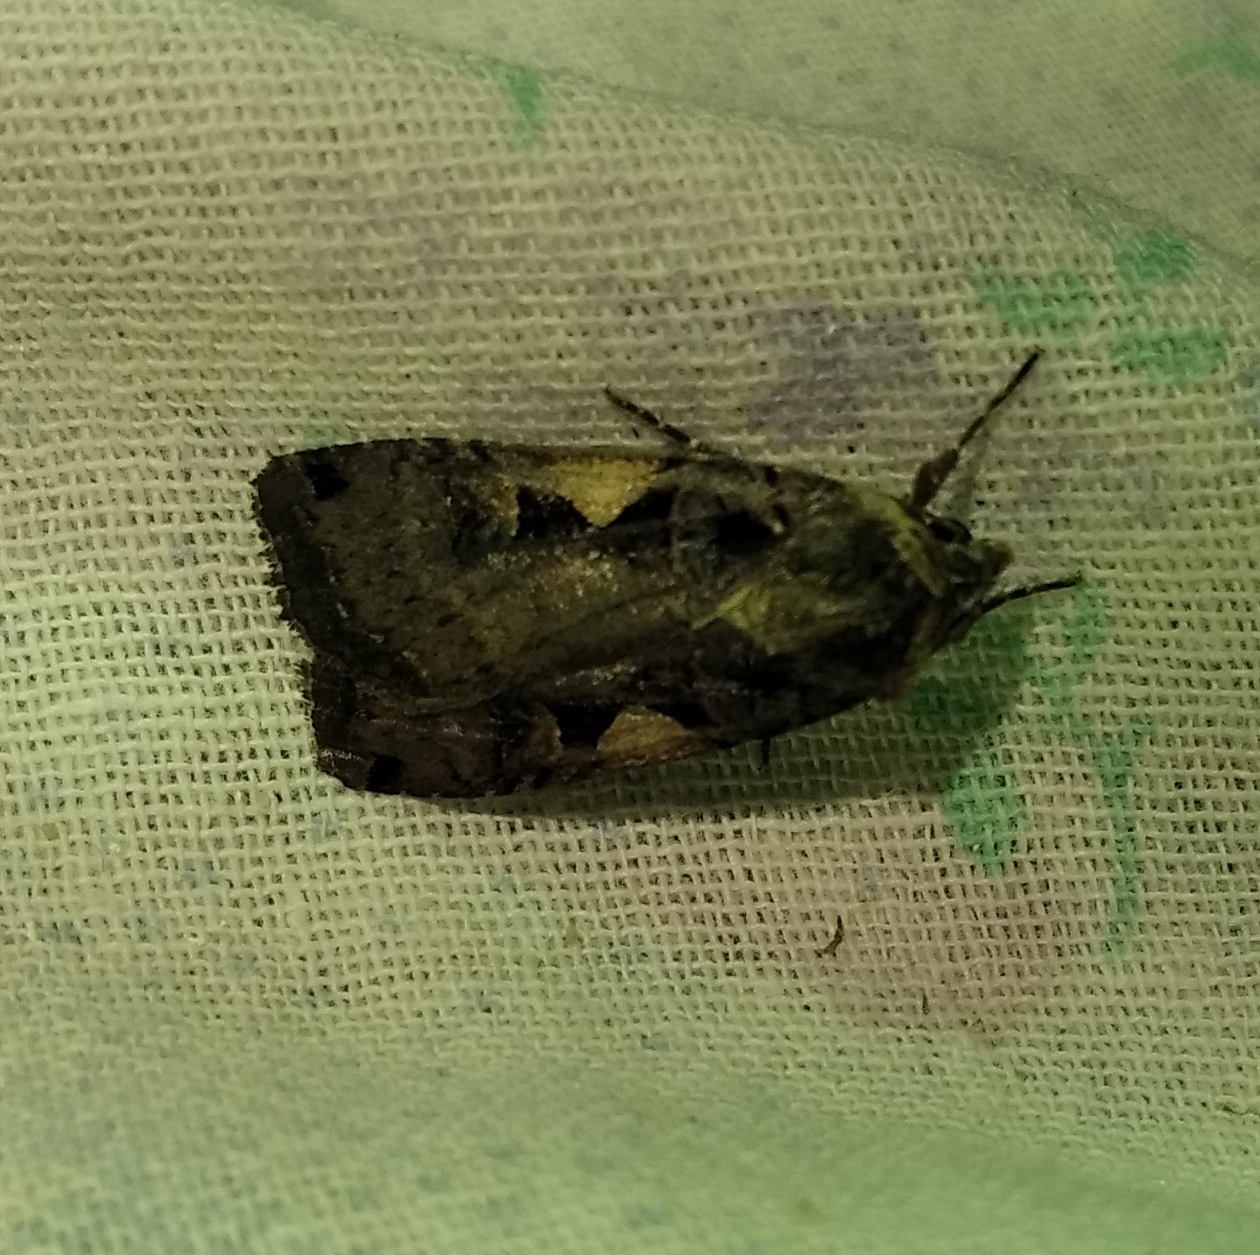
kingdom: Animalia
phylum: Arthropoda
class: Insecta
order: Lepidoptera
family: Noctuidae
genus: Xestia
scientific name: Xestia c-nigrum
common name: Setaceous hebrew character
